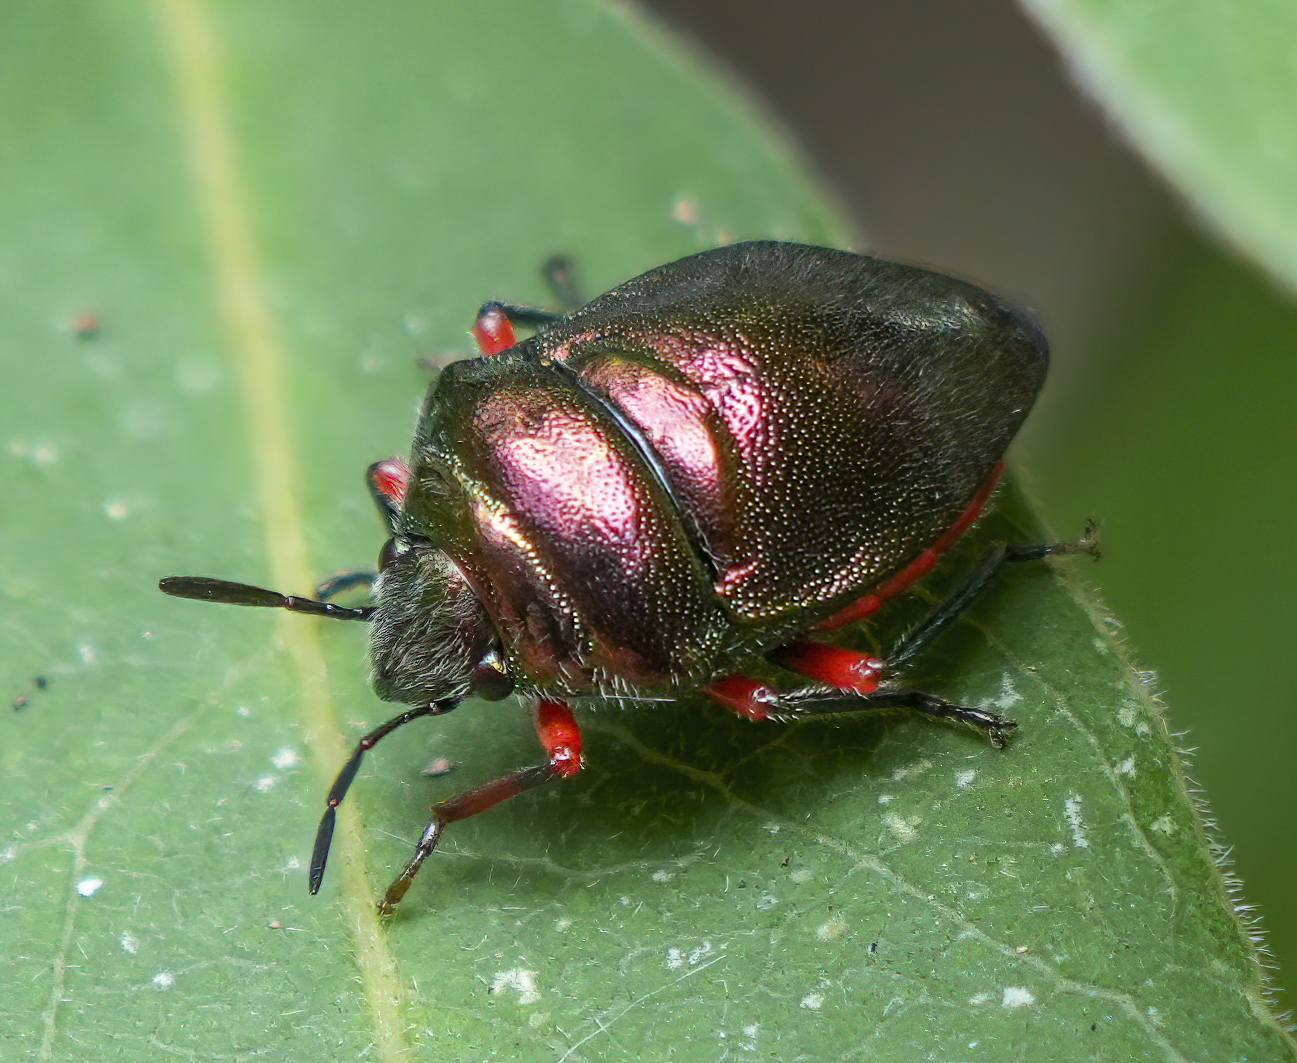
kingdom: Animalia
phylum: Arthropoda
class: Insecta
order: Hemiptera
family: Scutelleridae
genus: Lampromicra
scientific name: Lampromicra
